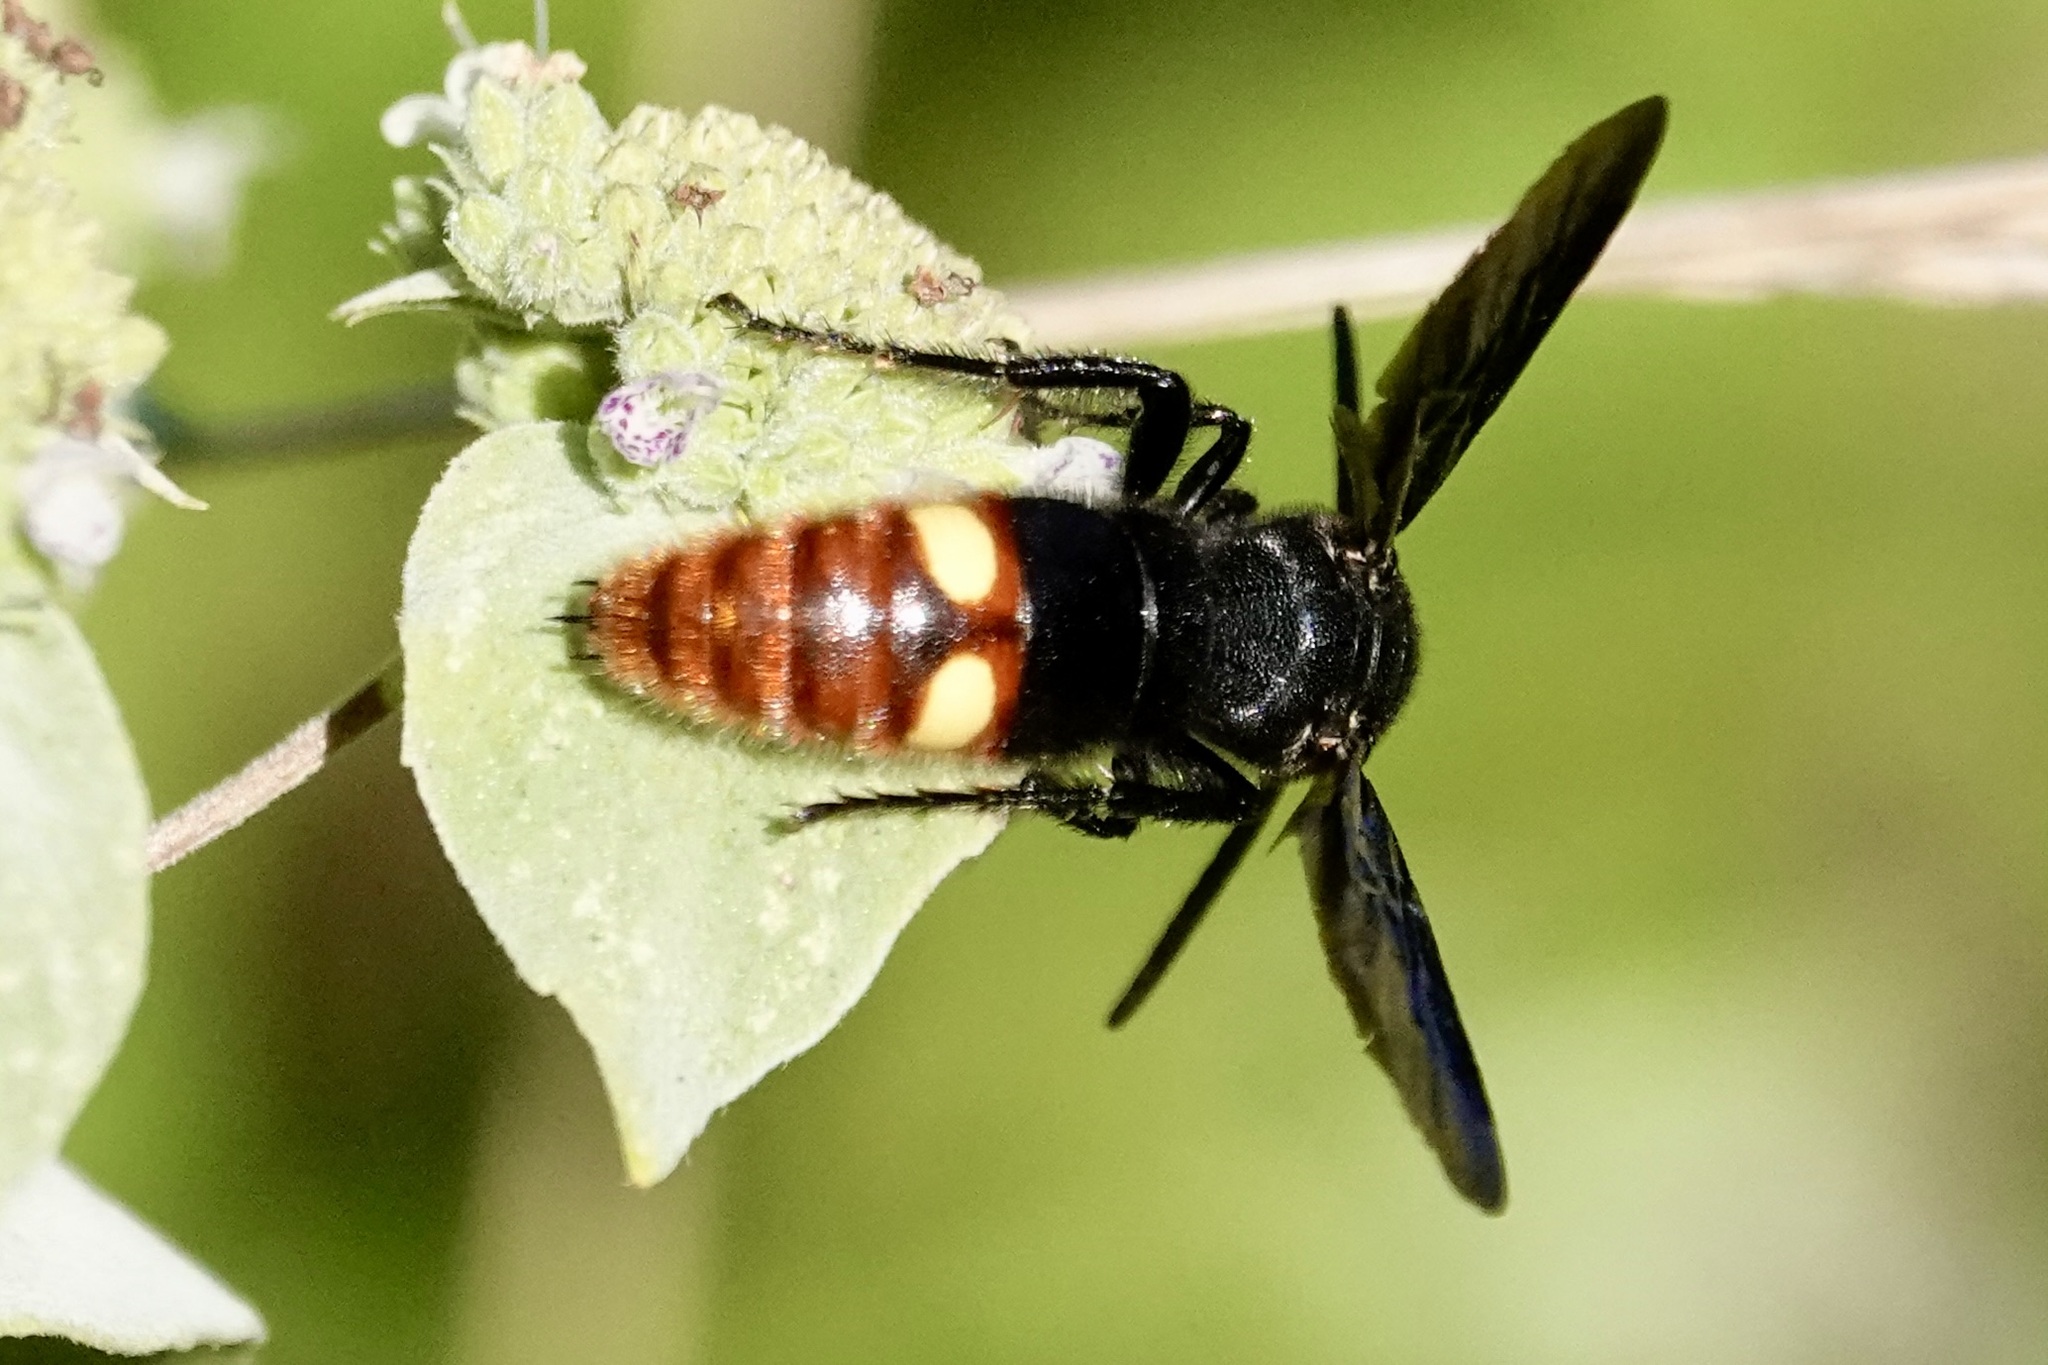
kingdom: Animalia
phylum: Arthropoda
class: Insecta
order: Hymenoptera
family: Scoliidae
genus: Scolia
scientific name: Scolia dubia
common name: Blue-winged scoliid wasp
